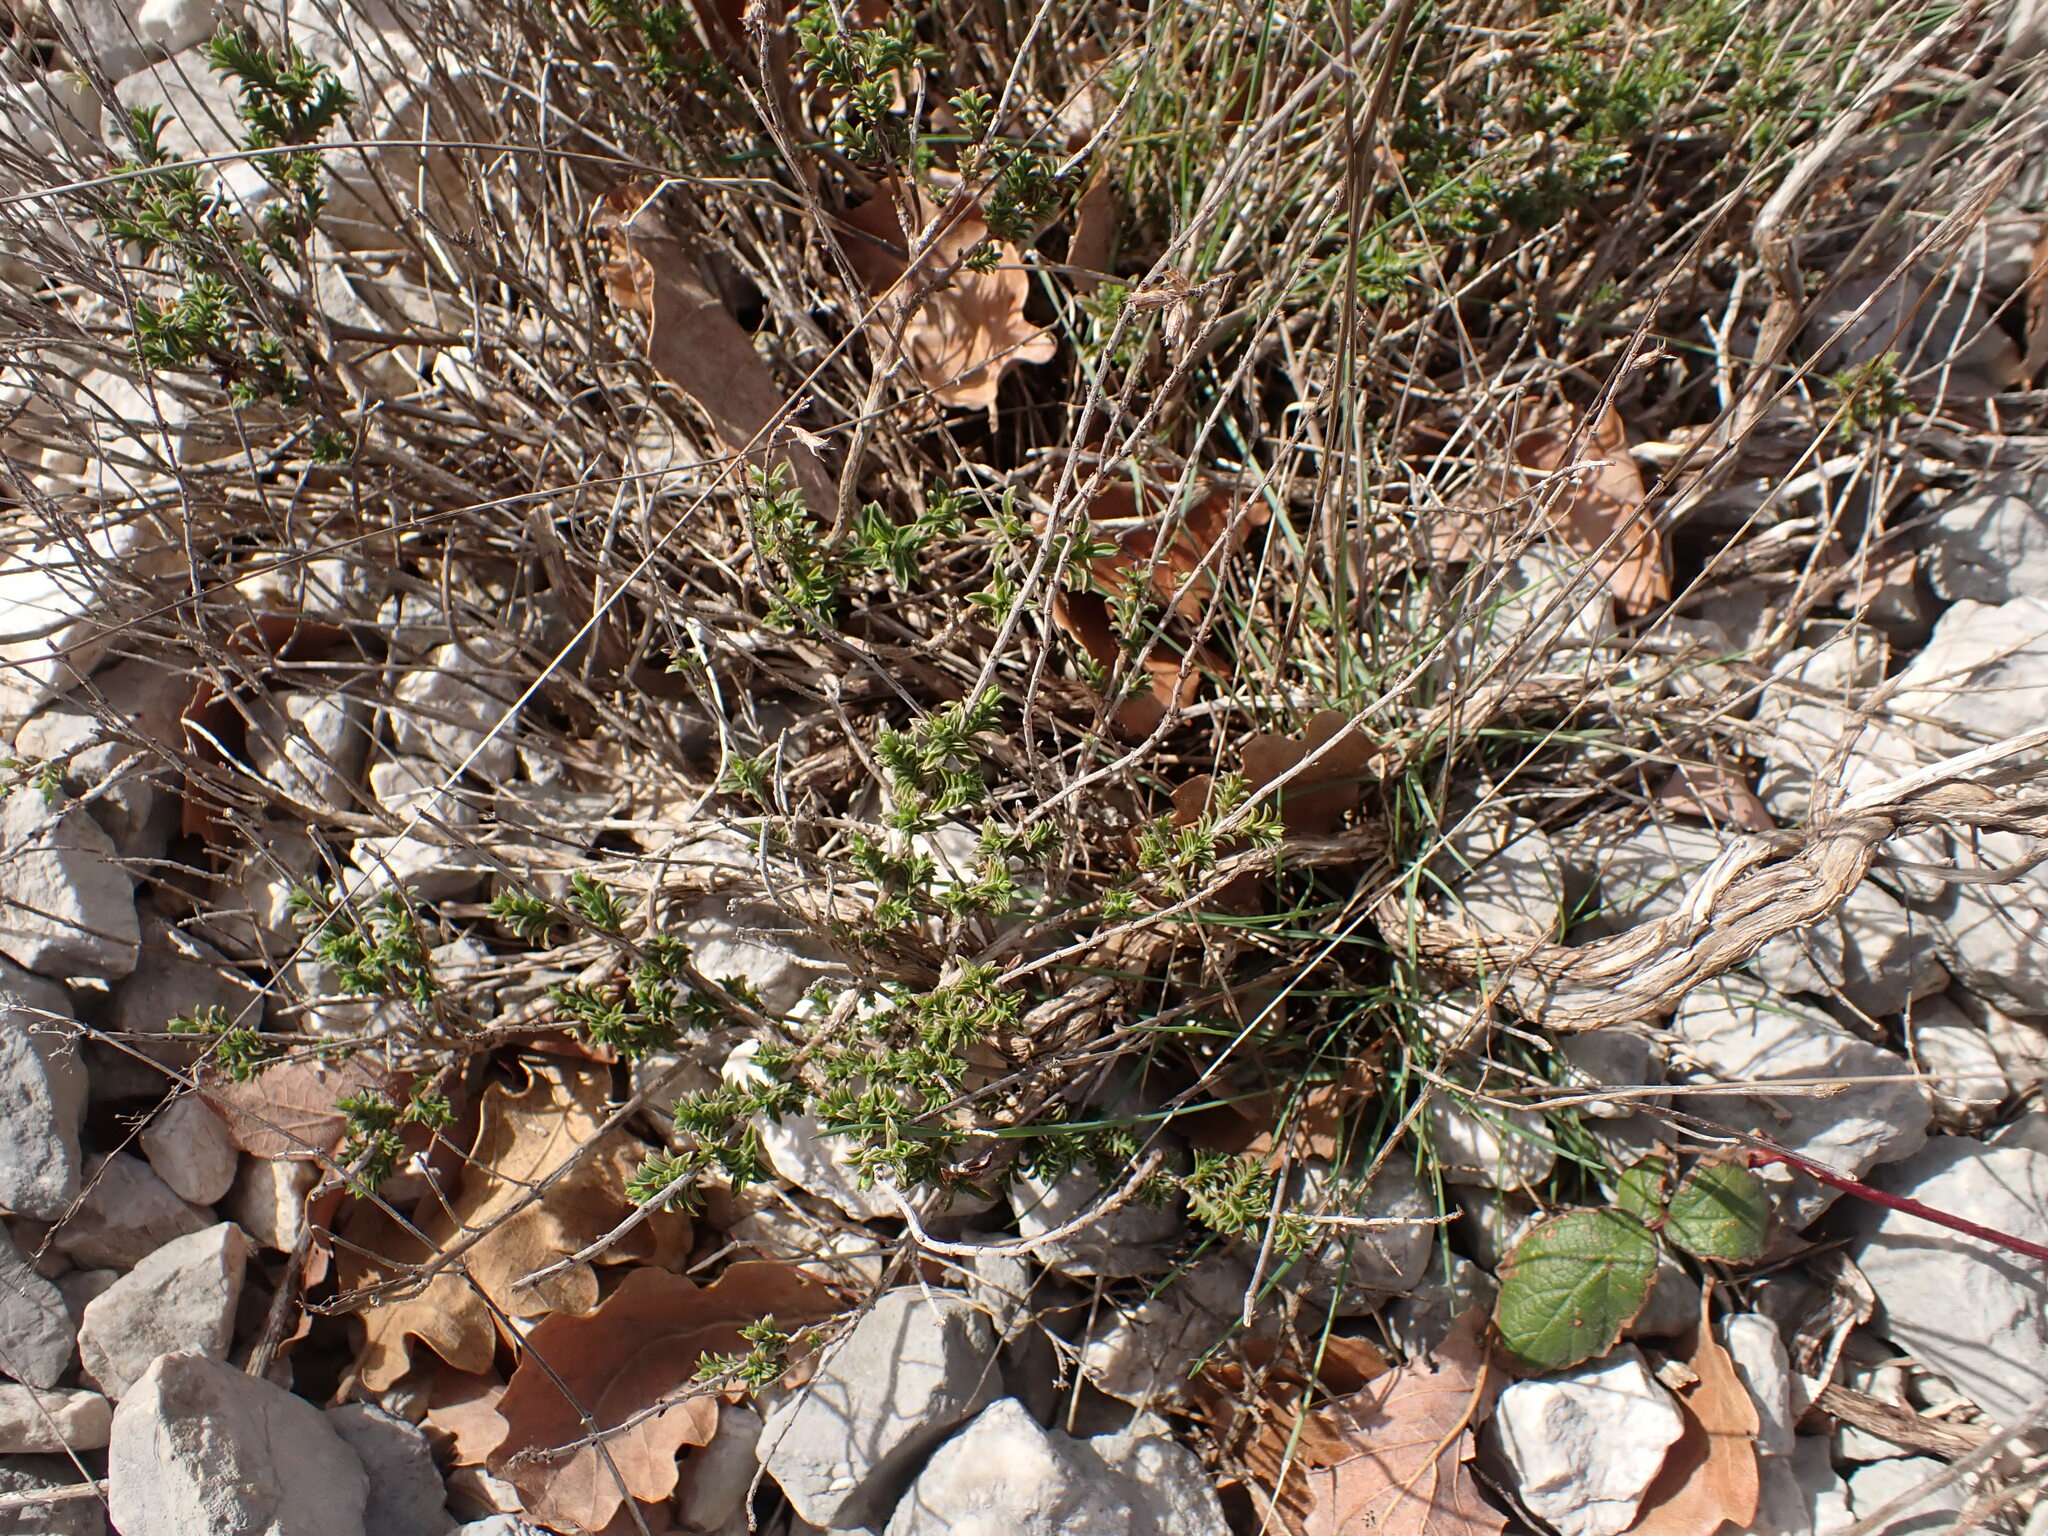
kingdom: Plantae
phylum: Tracheophyta
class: Magnoliopsida
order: Lamiales
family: Lamiaceae
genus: Satureja
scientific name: Satureja montana
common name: Winter savory
